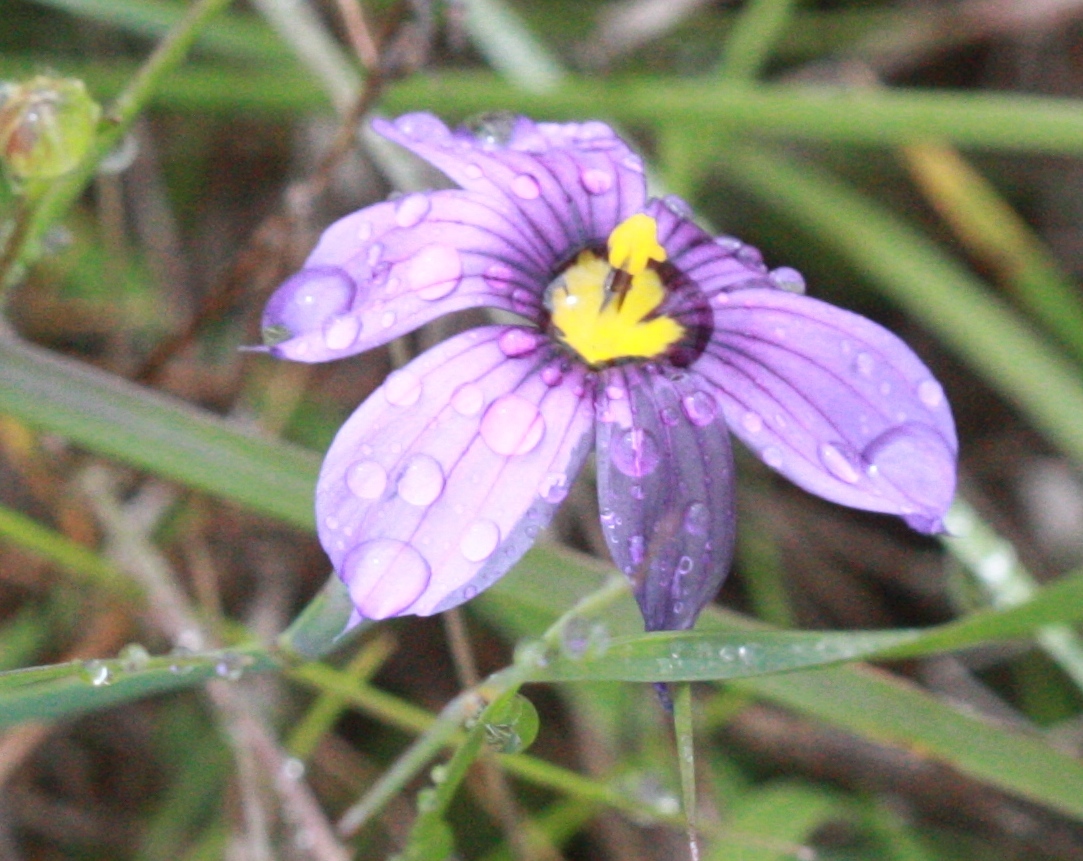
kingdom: Plantae
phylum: Tracheophyta
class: Liliopsida
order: Asparagales
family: Iridaceae
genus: Sisyrinchium
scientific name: Sisyrinchium bellum
